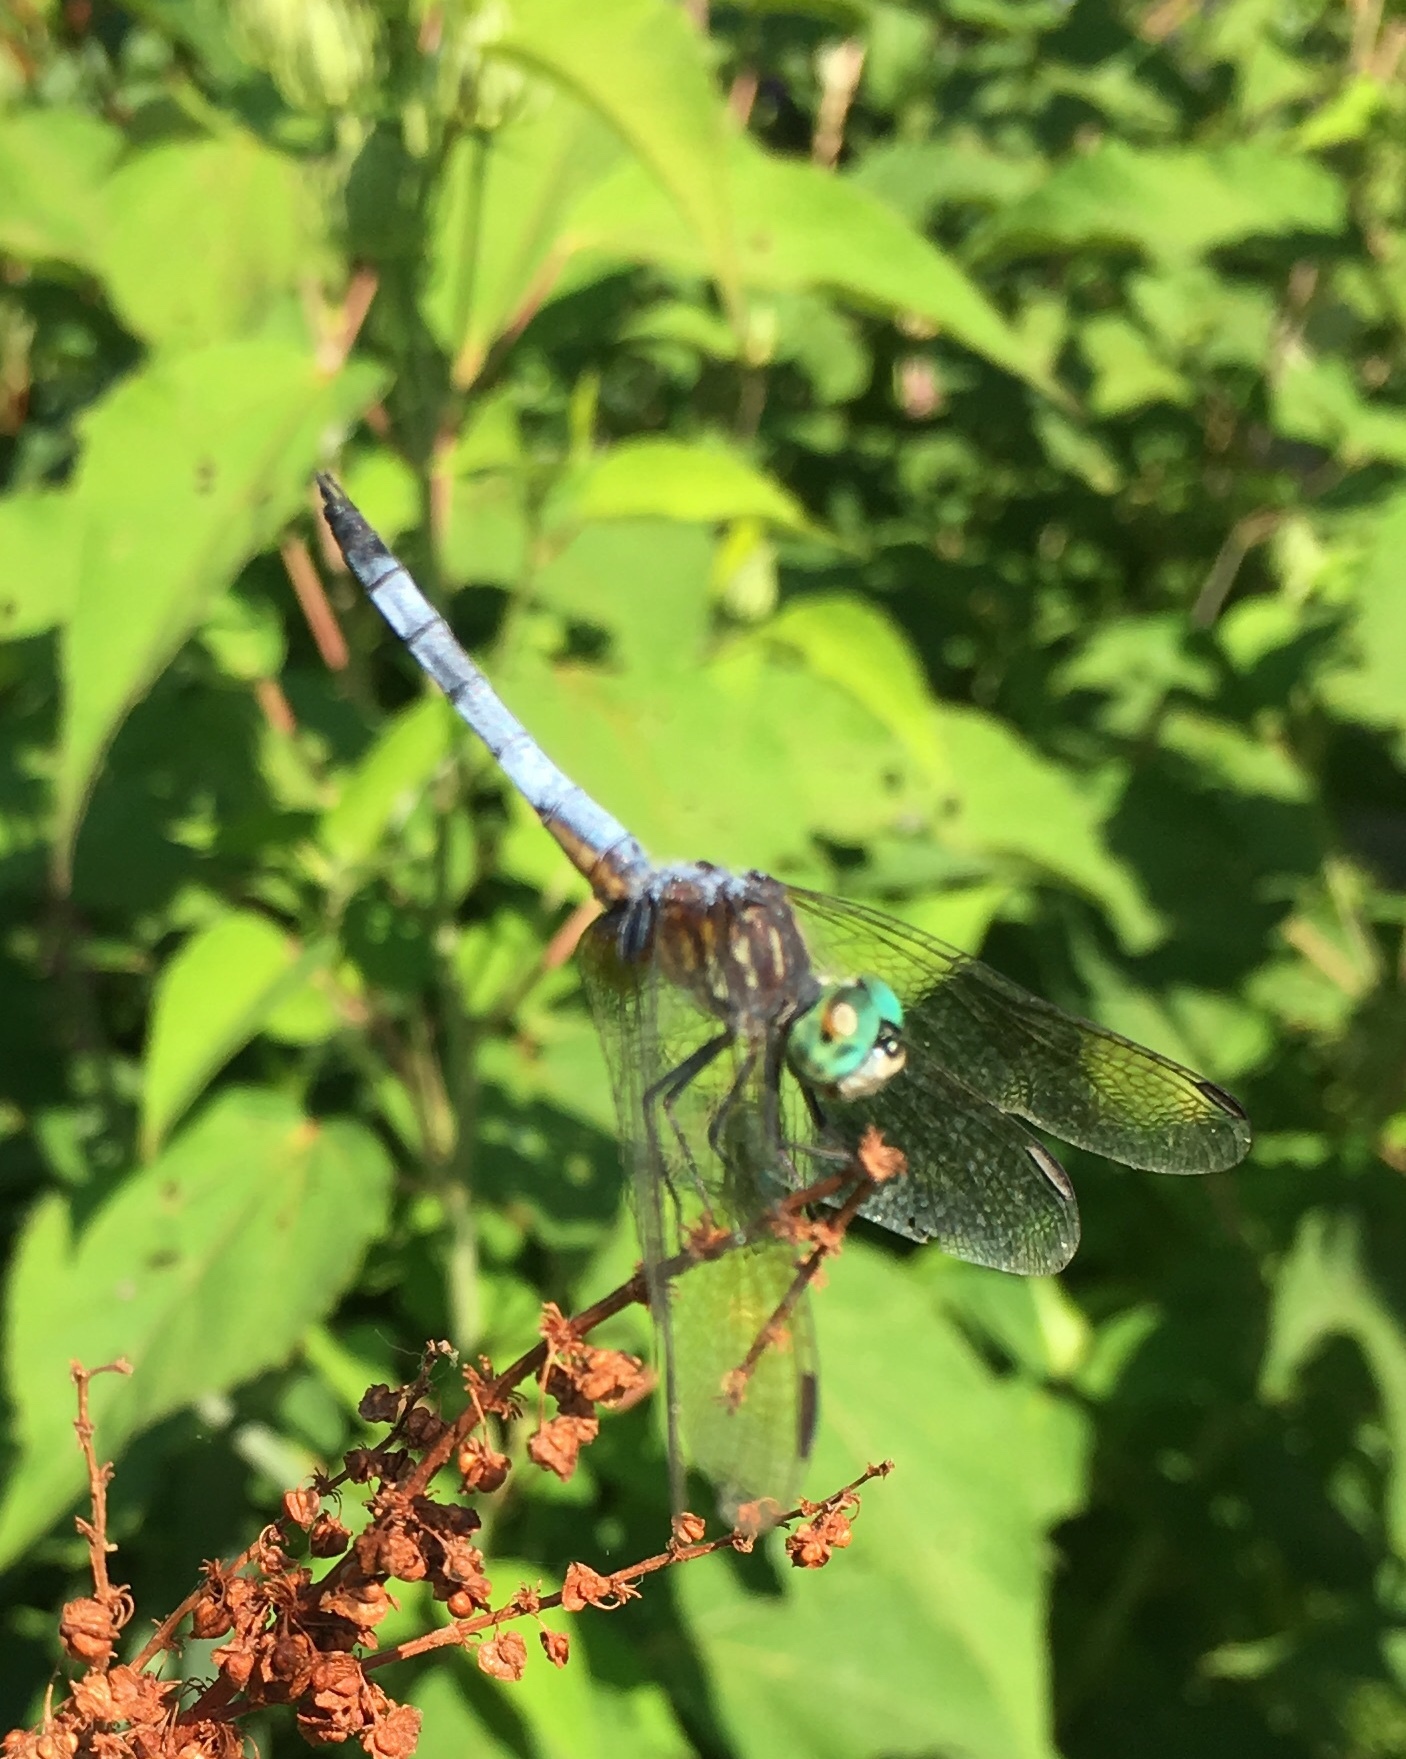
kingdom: Animalia
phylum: Arthropoda
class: Insecta
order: Odonata
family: Libellulidae
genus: Pachydiplax
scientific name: Pachydiplax longipennis
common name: Blue dasher
